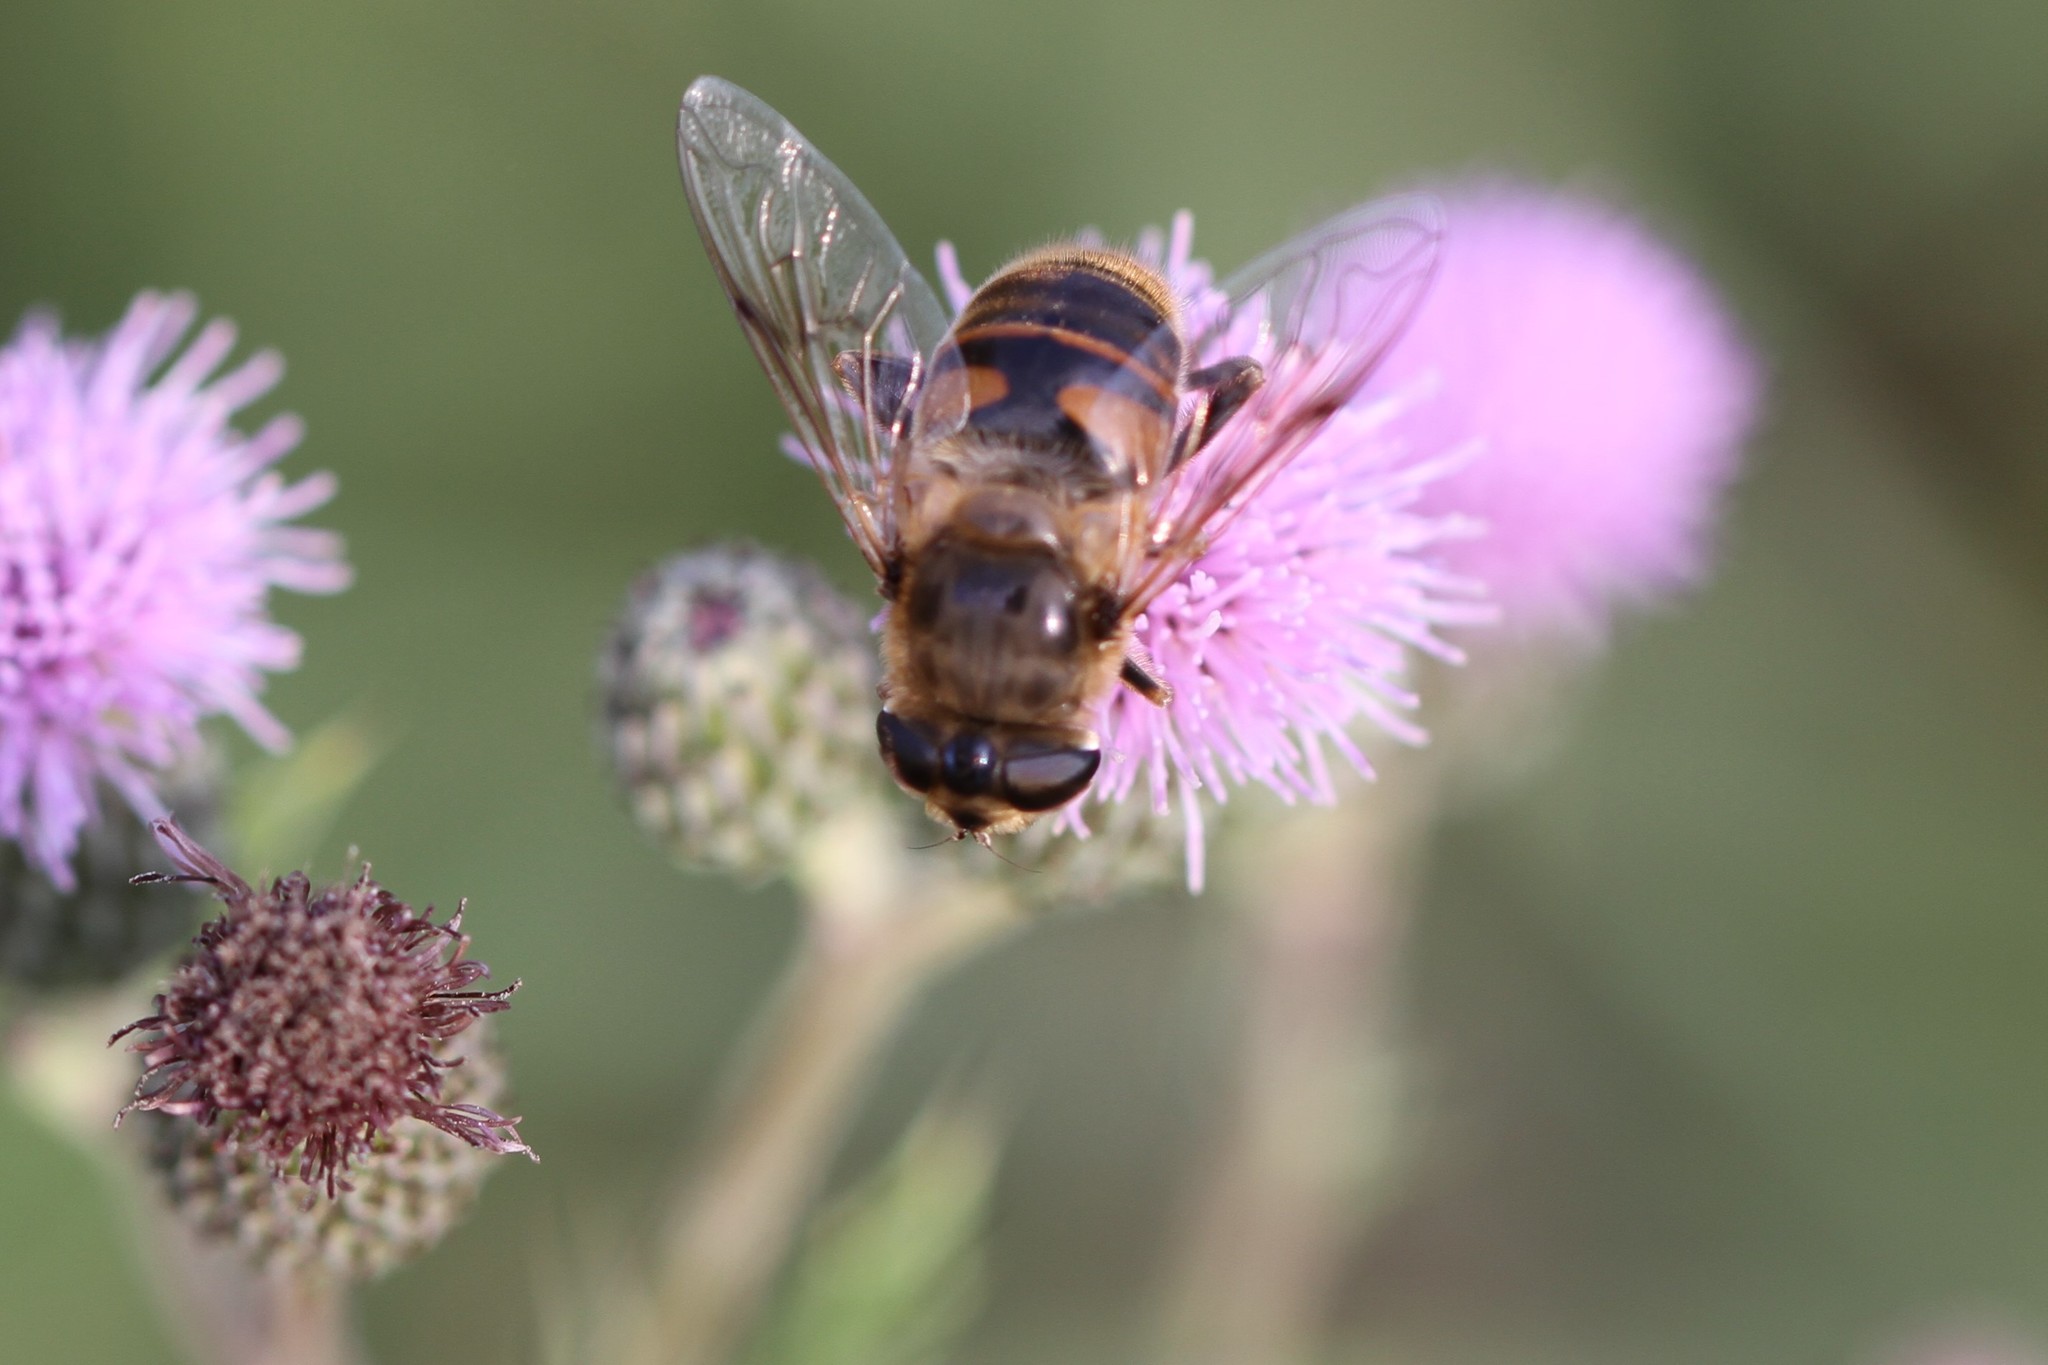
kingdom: Animalia
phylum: Arthropoda
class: Insecta
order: Diptera
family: Syrphidae
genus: Eristalis
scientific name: Eristalis tenax
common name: Drone fly
